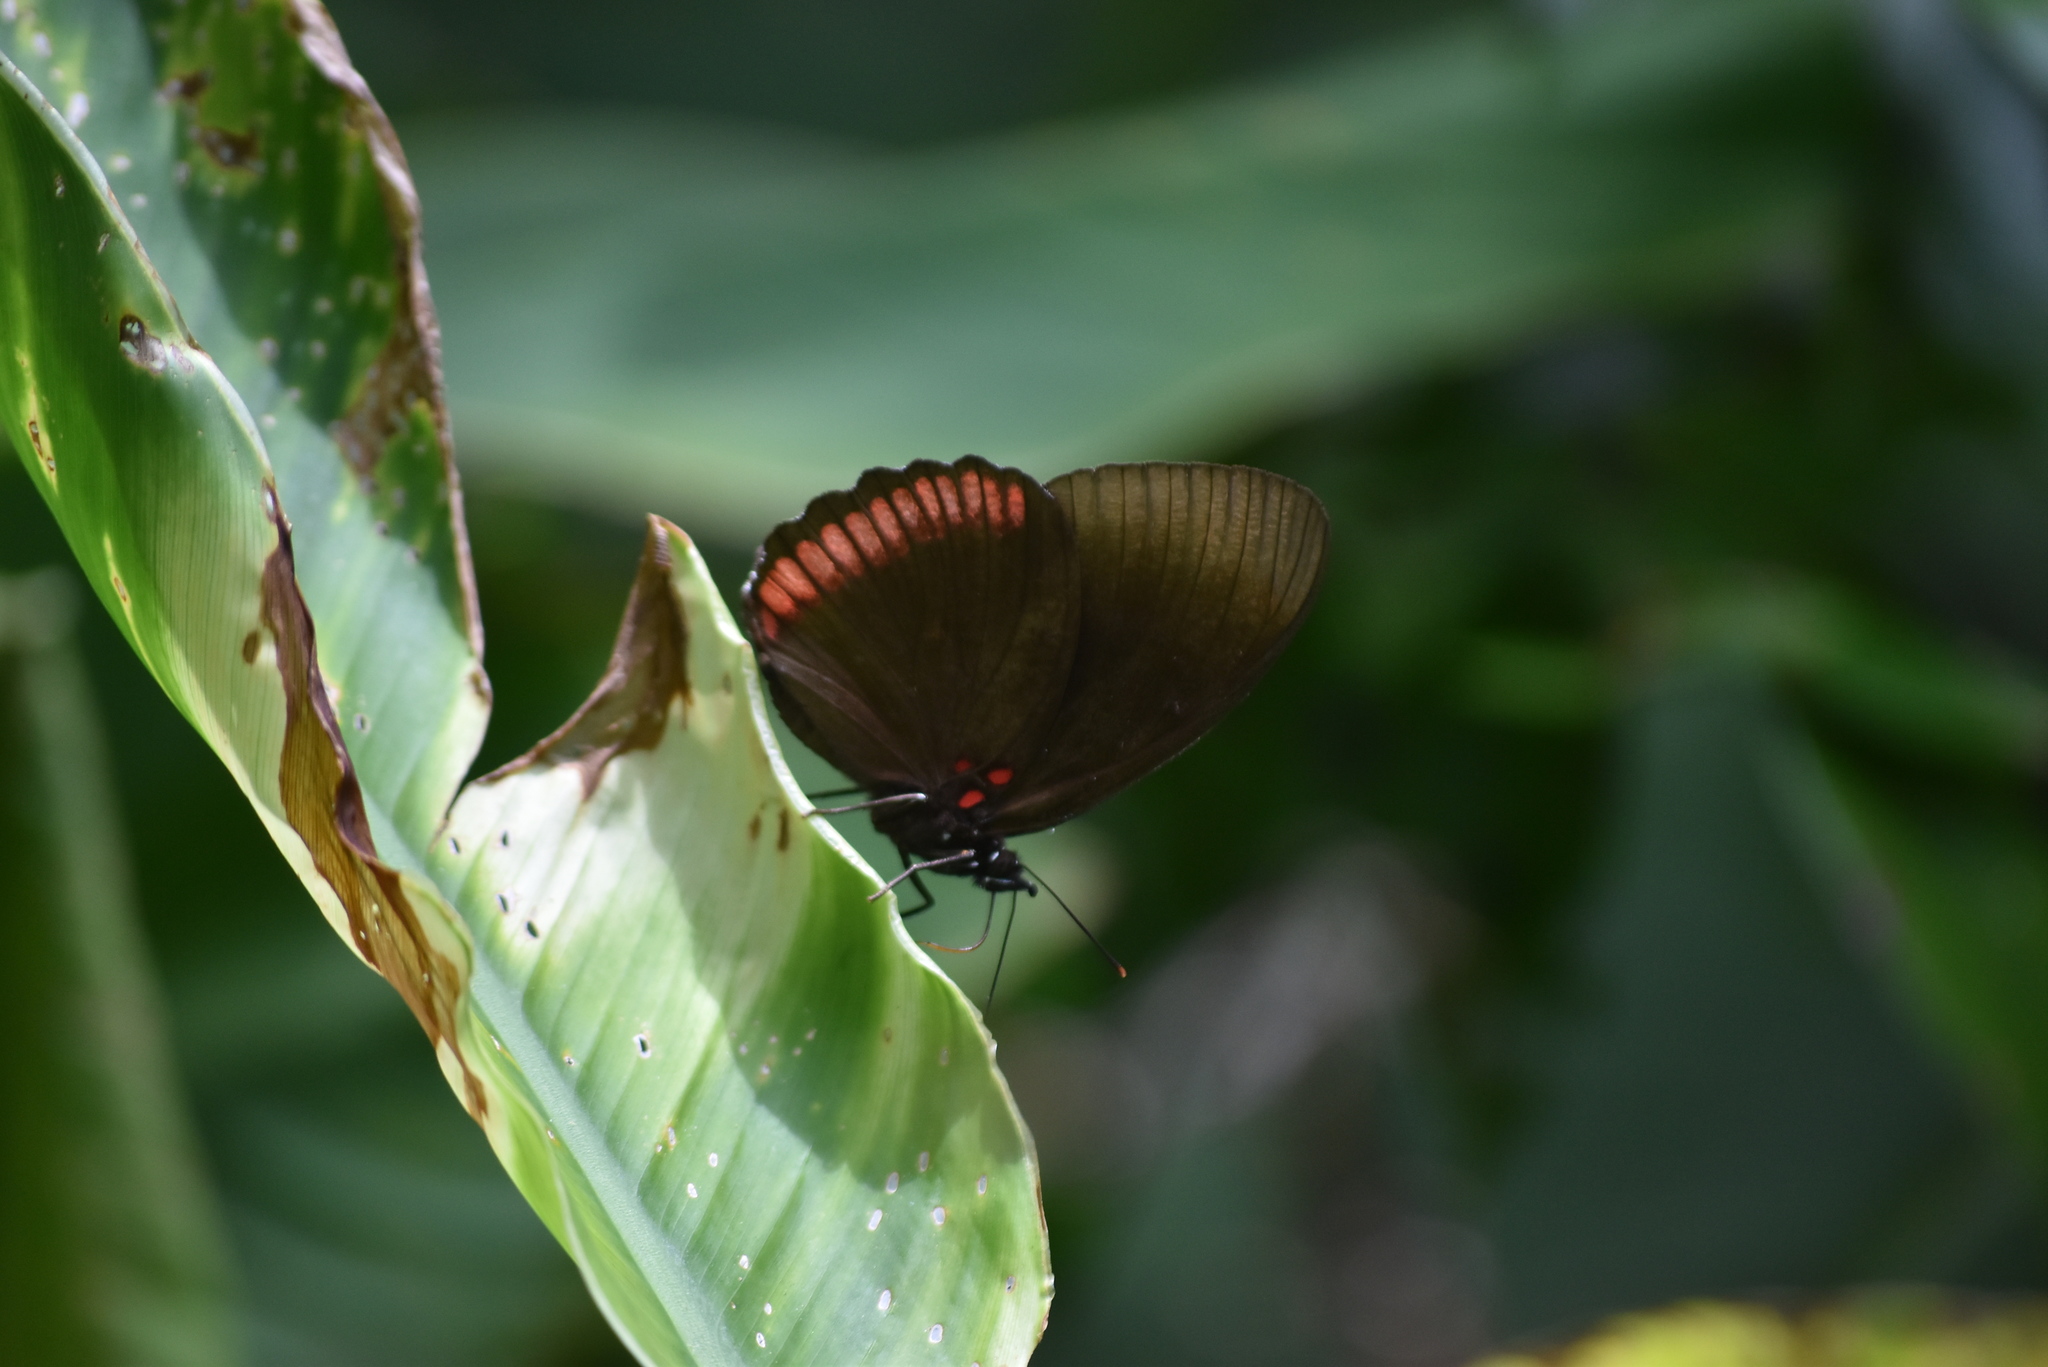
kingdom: Animalia
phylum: Arthropoda
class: Insecta
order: Lepidoptera
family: Sesiidae
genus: Sesia
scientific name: Sesia Biblis hyperia
